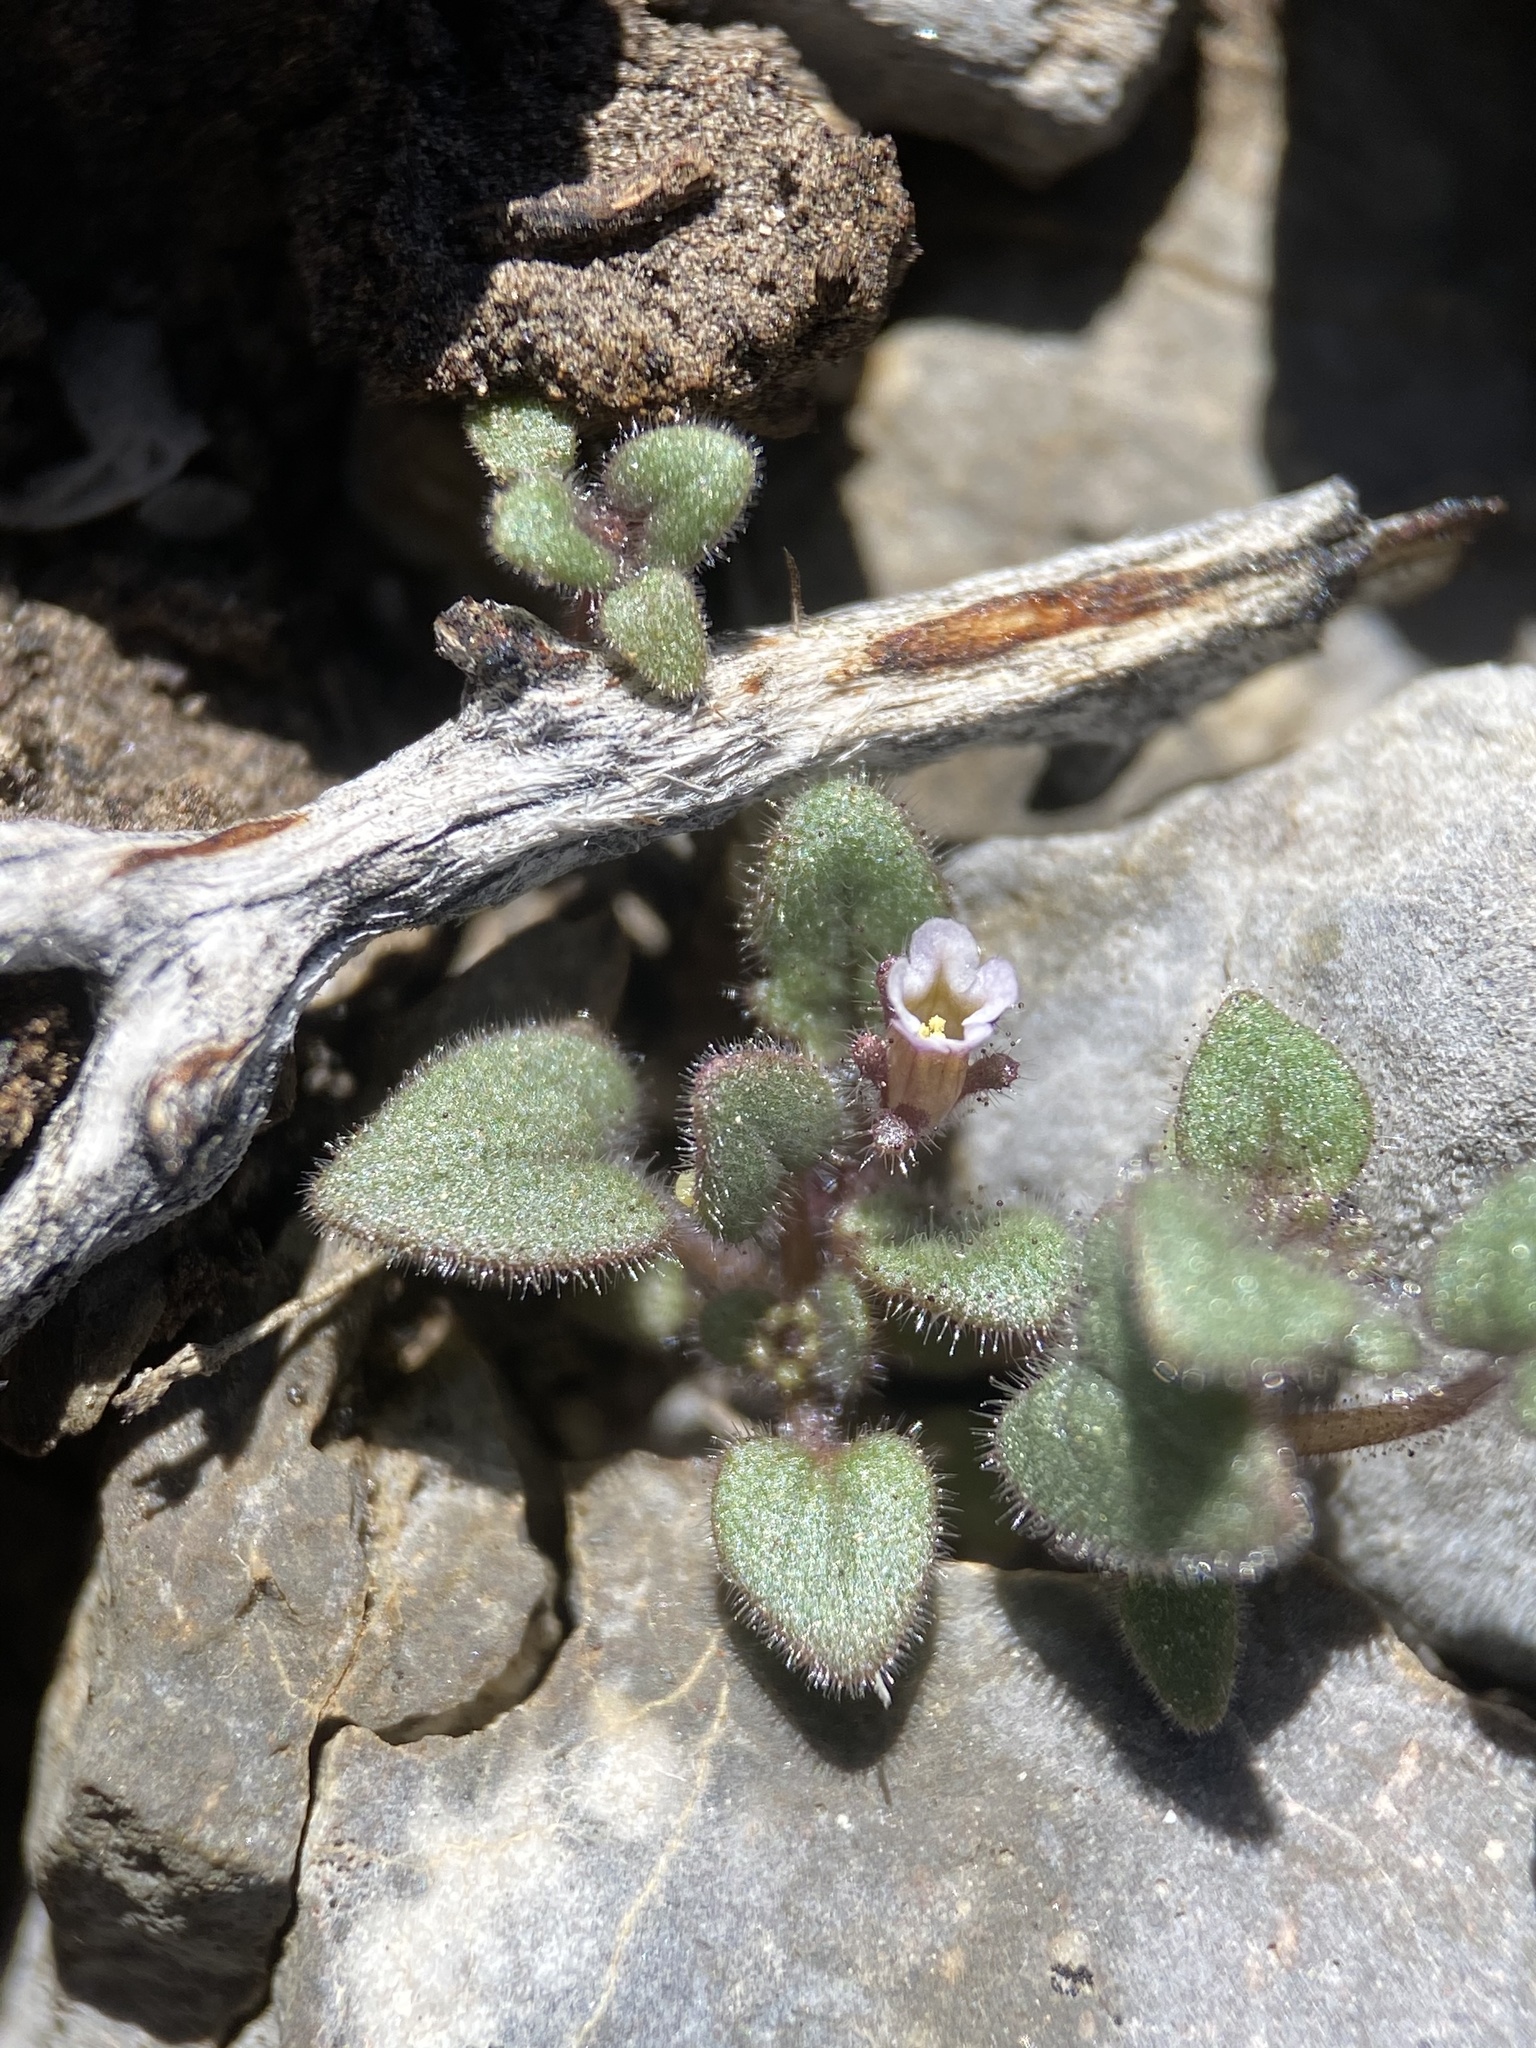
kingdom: Plantae
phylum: Tracheophyta
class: Magnoliopsida
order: Boraginales
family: Hydrophyllaceae
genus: Phacelia
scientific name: Phacelia barnebyana
